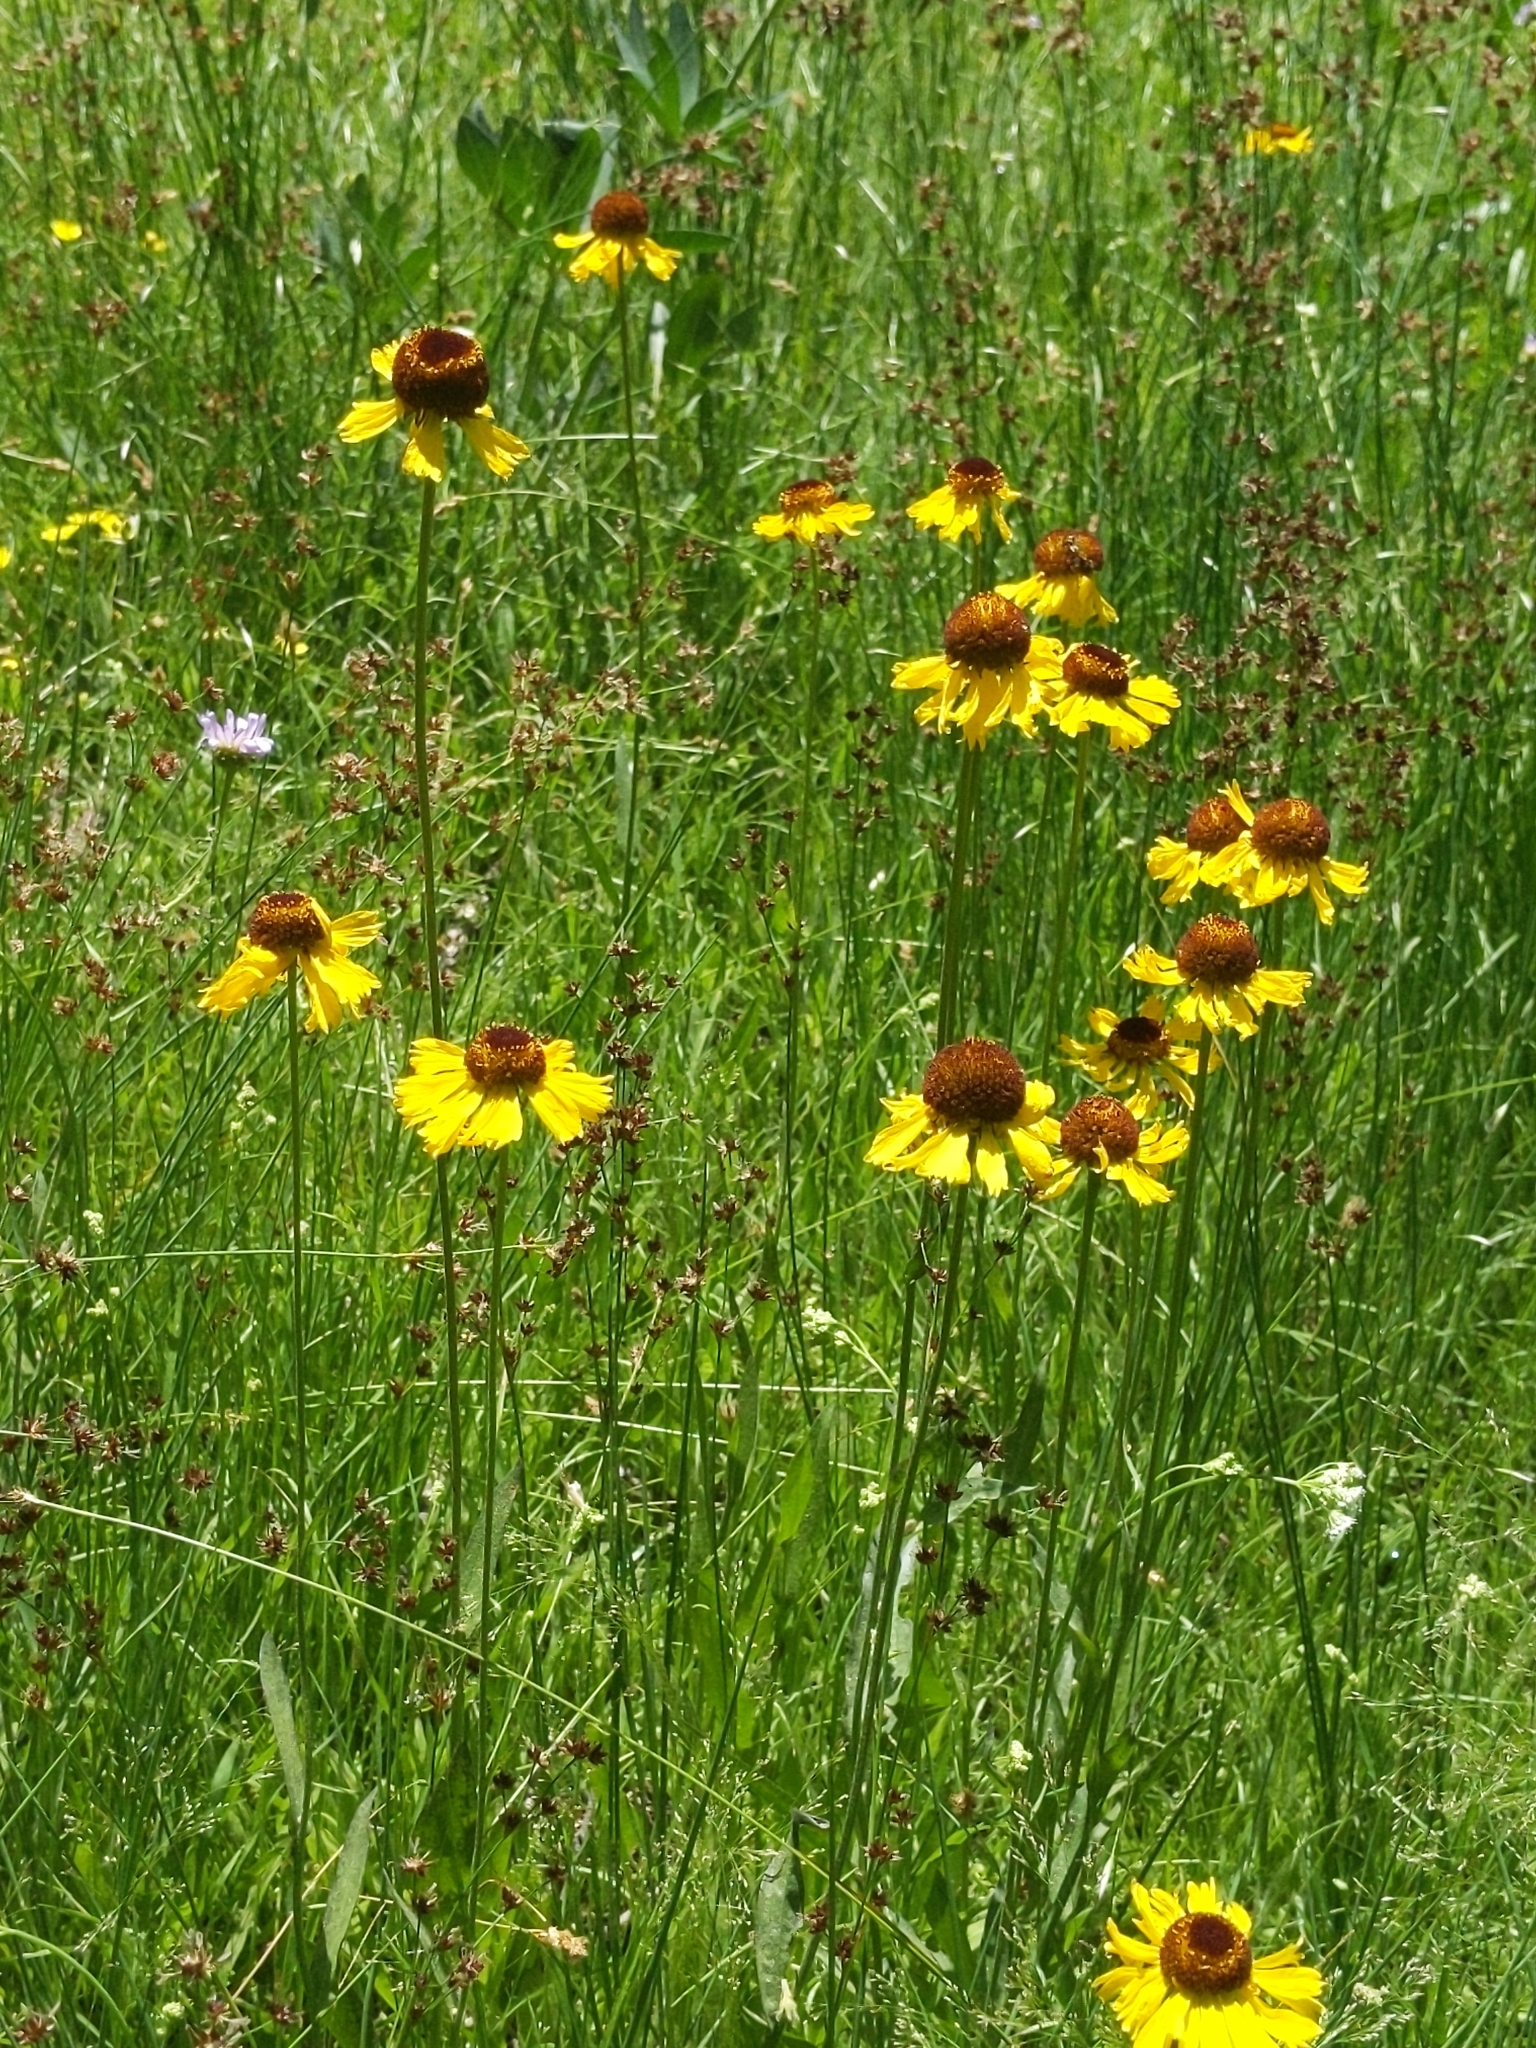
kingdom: Plantae
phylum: Tracheophyta
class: Magnoliopsida
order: Asterales
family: Asteraceae
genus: Helenium
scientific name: Helenium bigelovii
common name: Bigelow's sneezeweed
